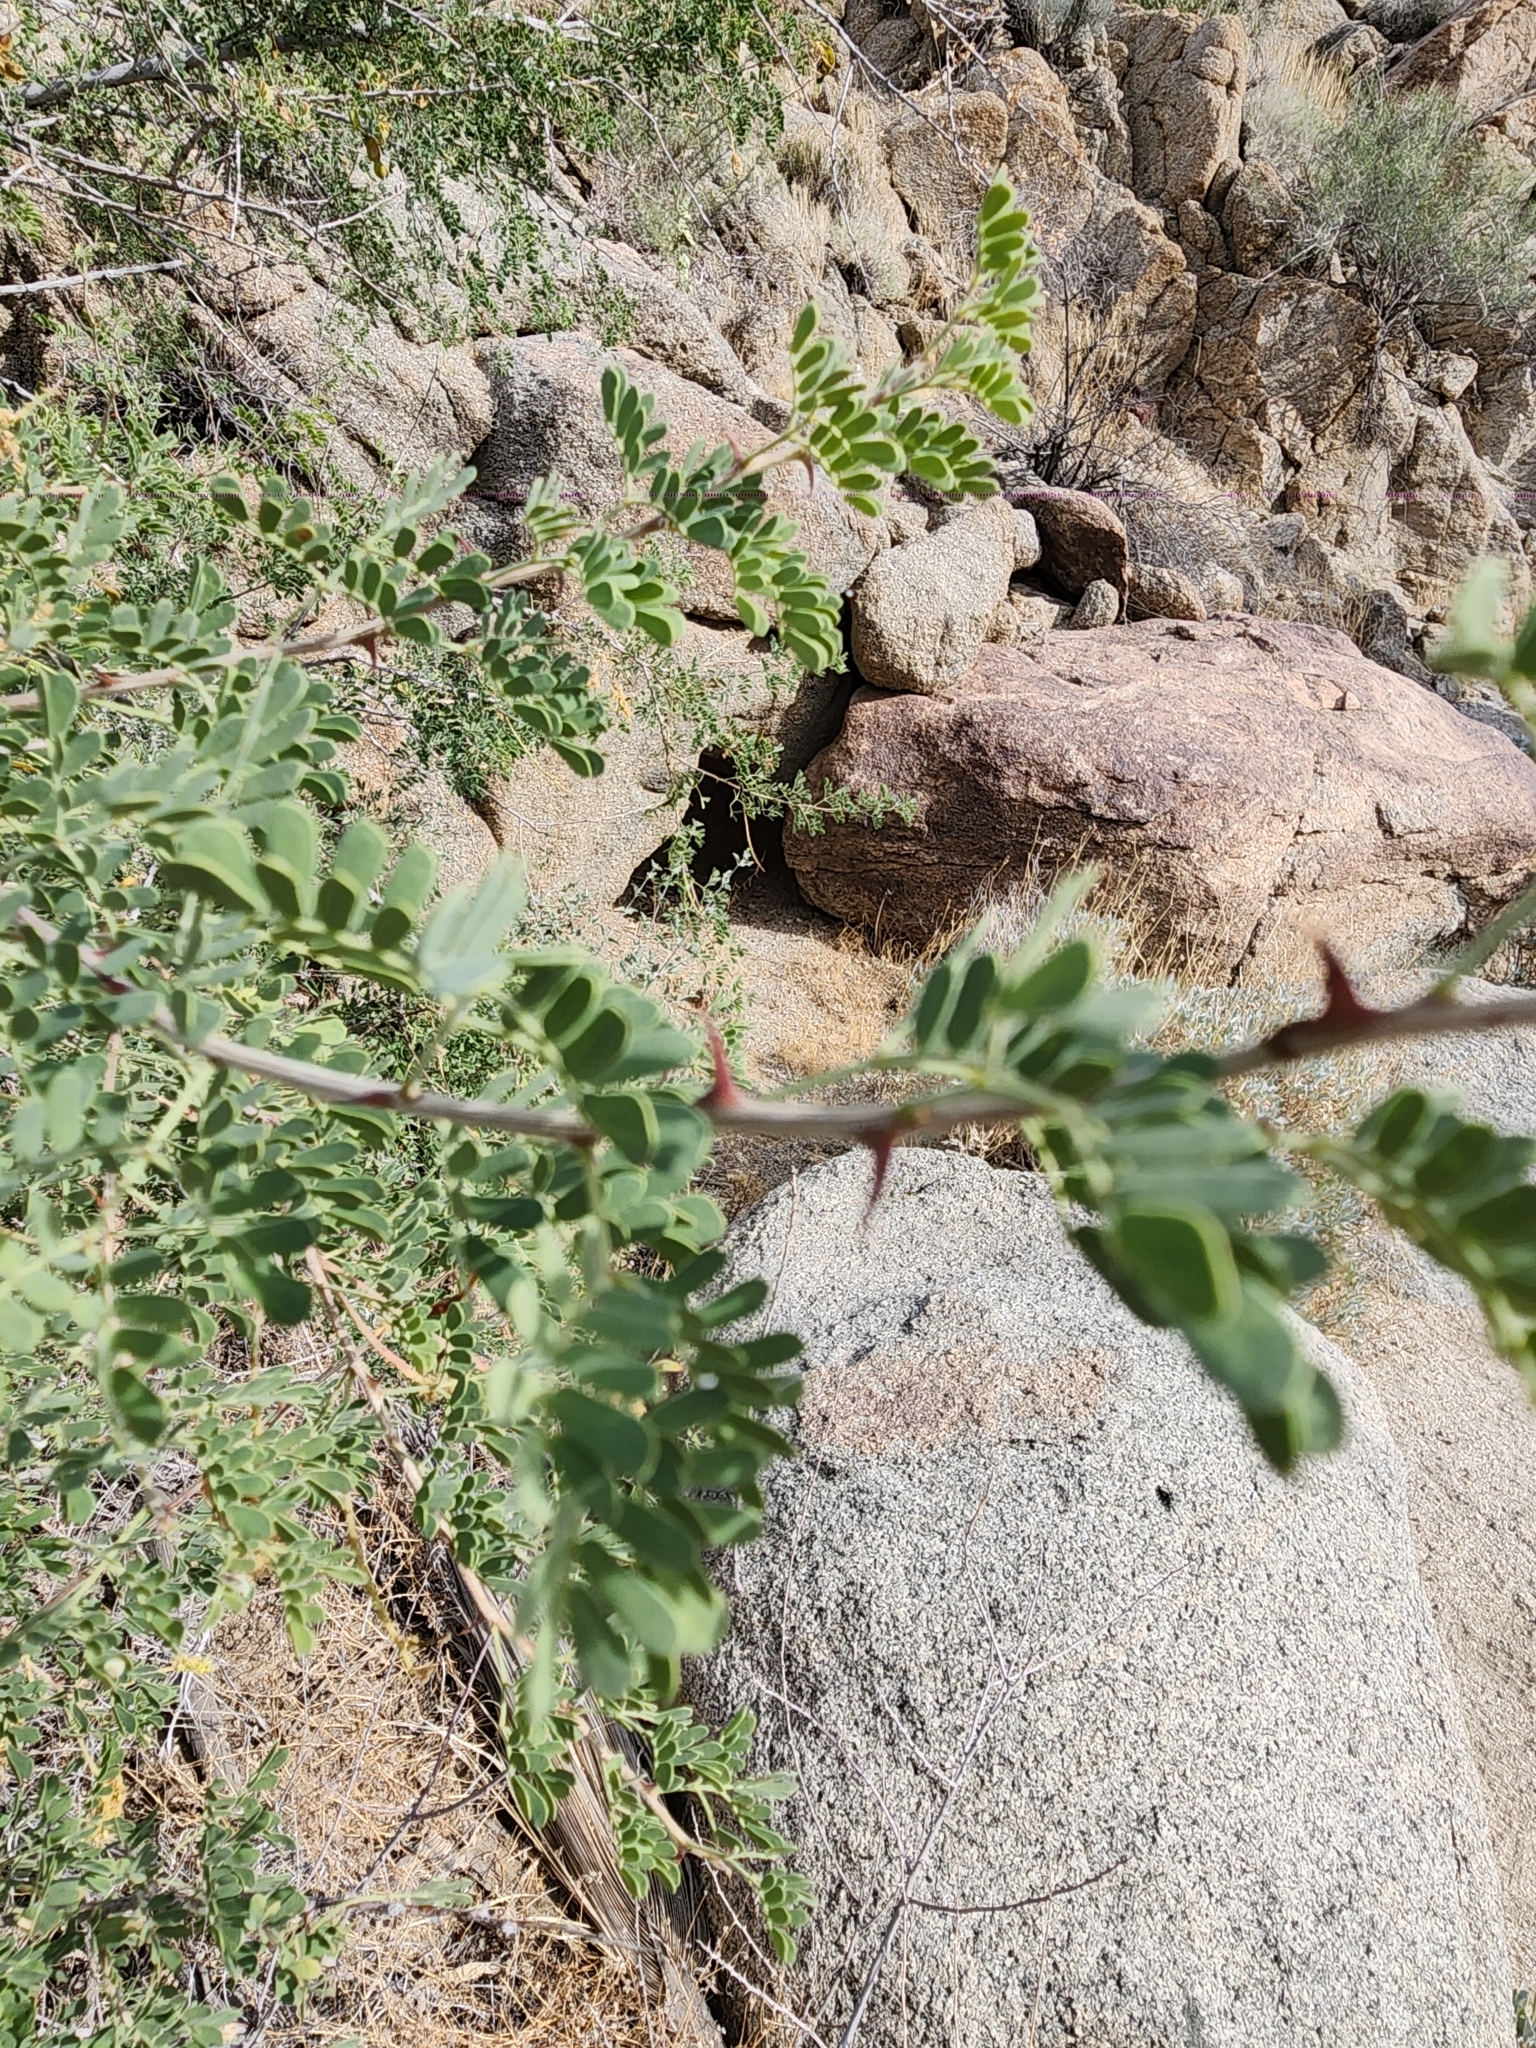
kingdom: Plantae
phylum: Tracheophyta
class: Magnoliopsida
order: Fabales
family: Fabaceae
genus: Senegalia
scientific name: Senegalia greggii
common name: Texas-mimosa
